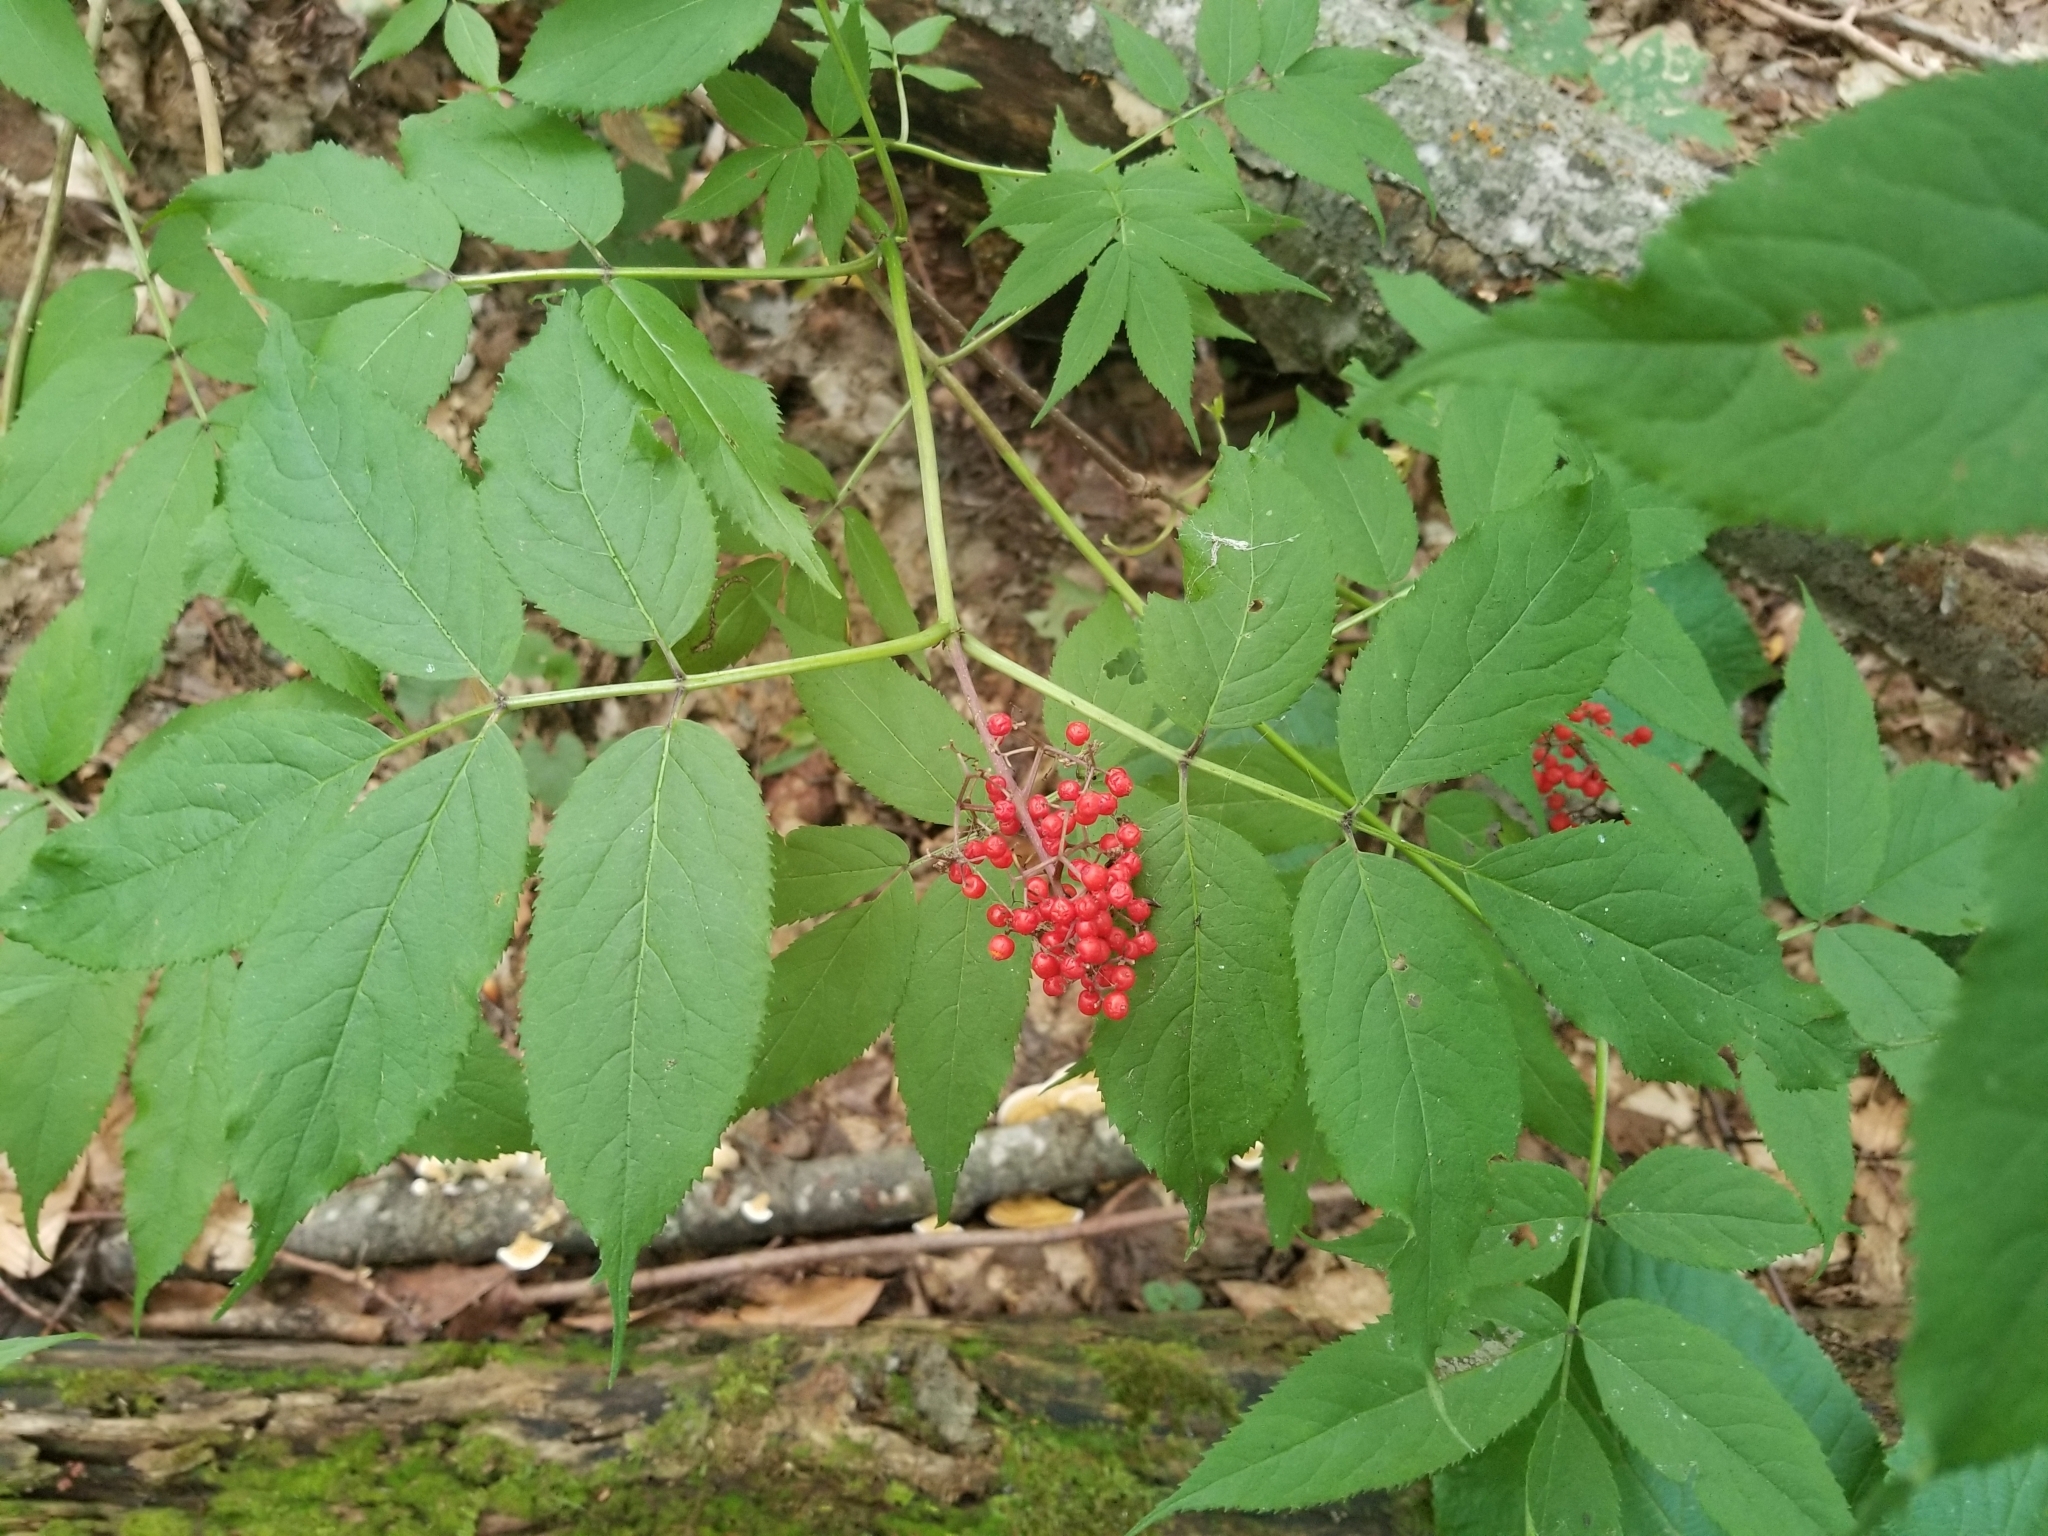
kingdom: Plantae
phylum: Tracheophyta
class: Magnoliopsida
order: Dipsacales
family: Viburnaceae
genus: Sambucus
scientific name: Sambucus racemosa
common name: Red-berried elder
